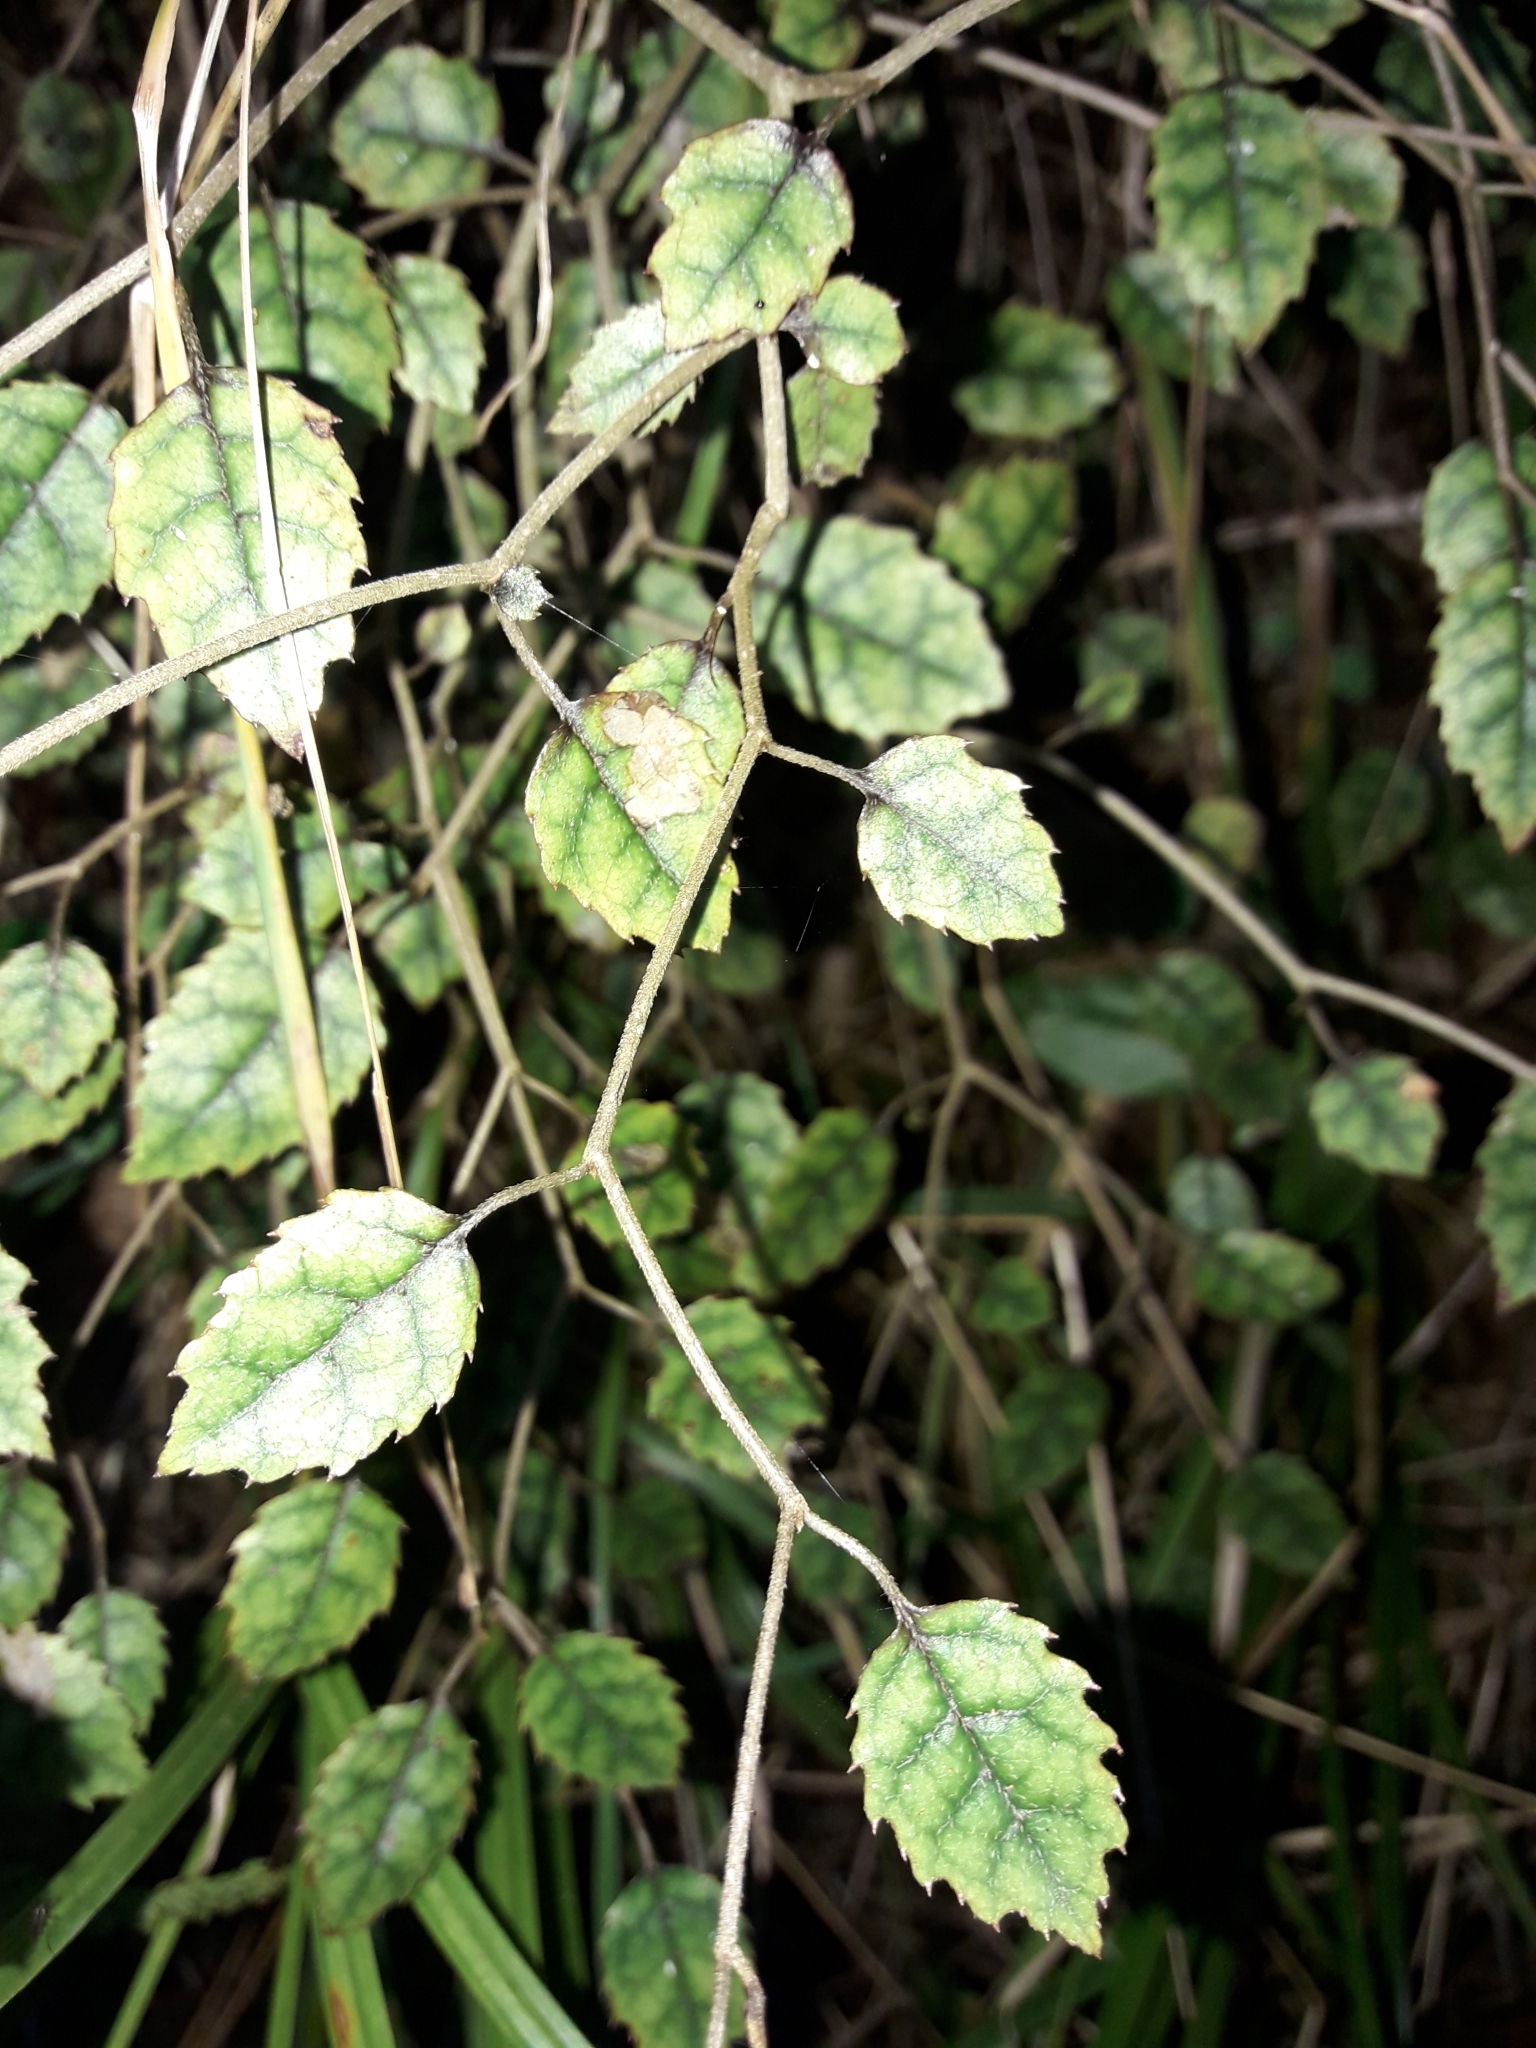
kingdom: Plantae
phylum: Tracheophyta
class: Magnoliopsida
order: Asterales
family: Rousseaceae
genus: Carpodetus
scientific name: Carpodetus serratus
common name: White mapau
